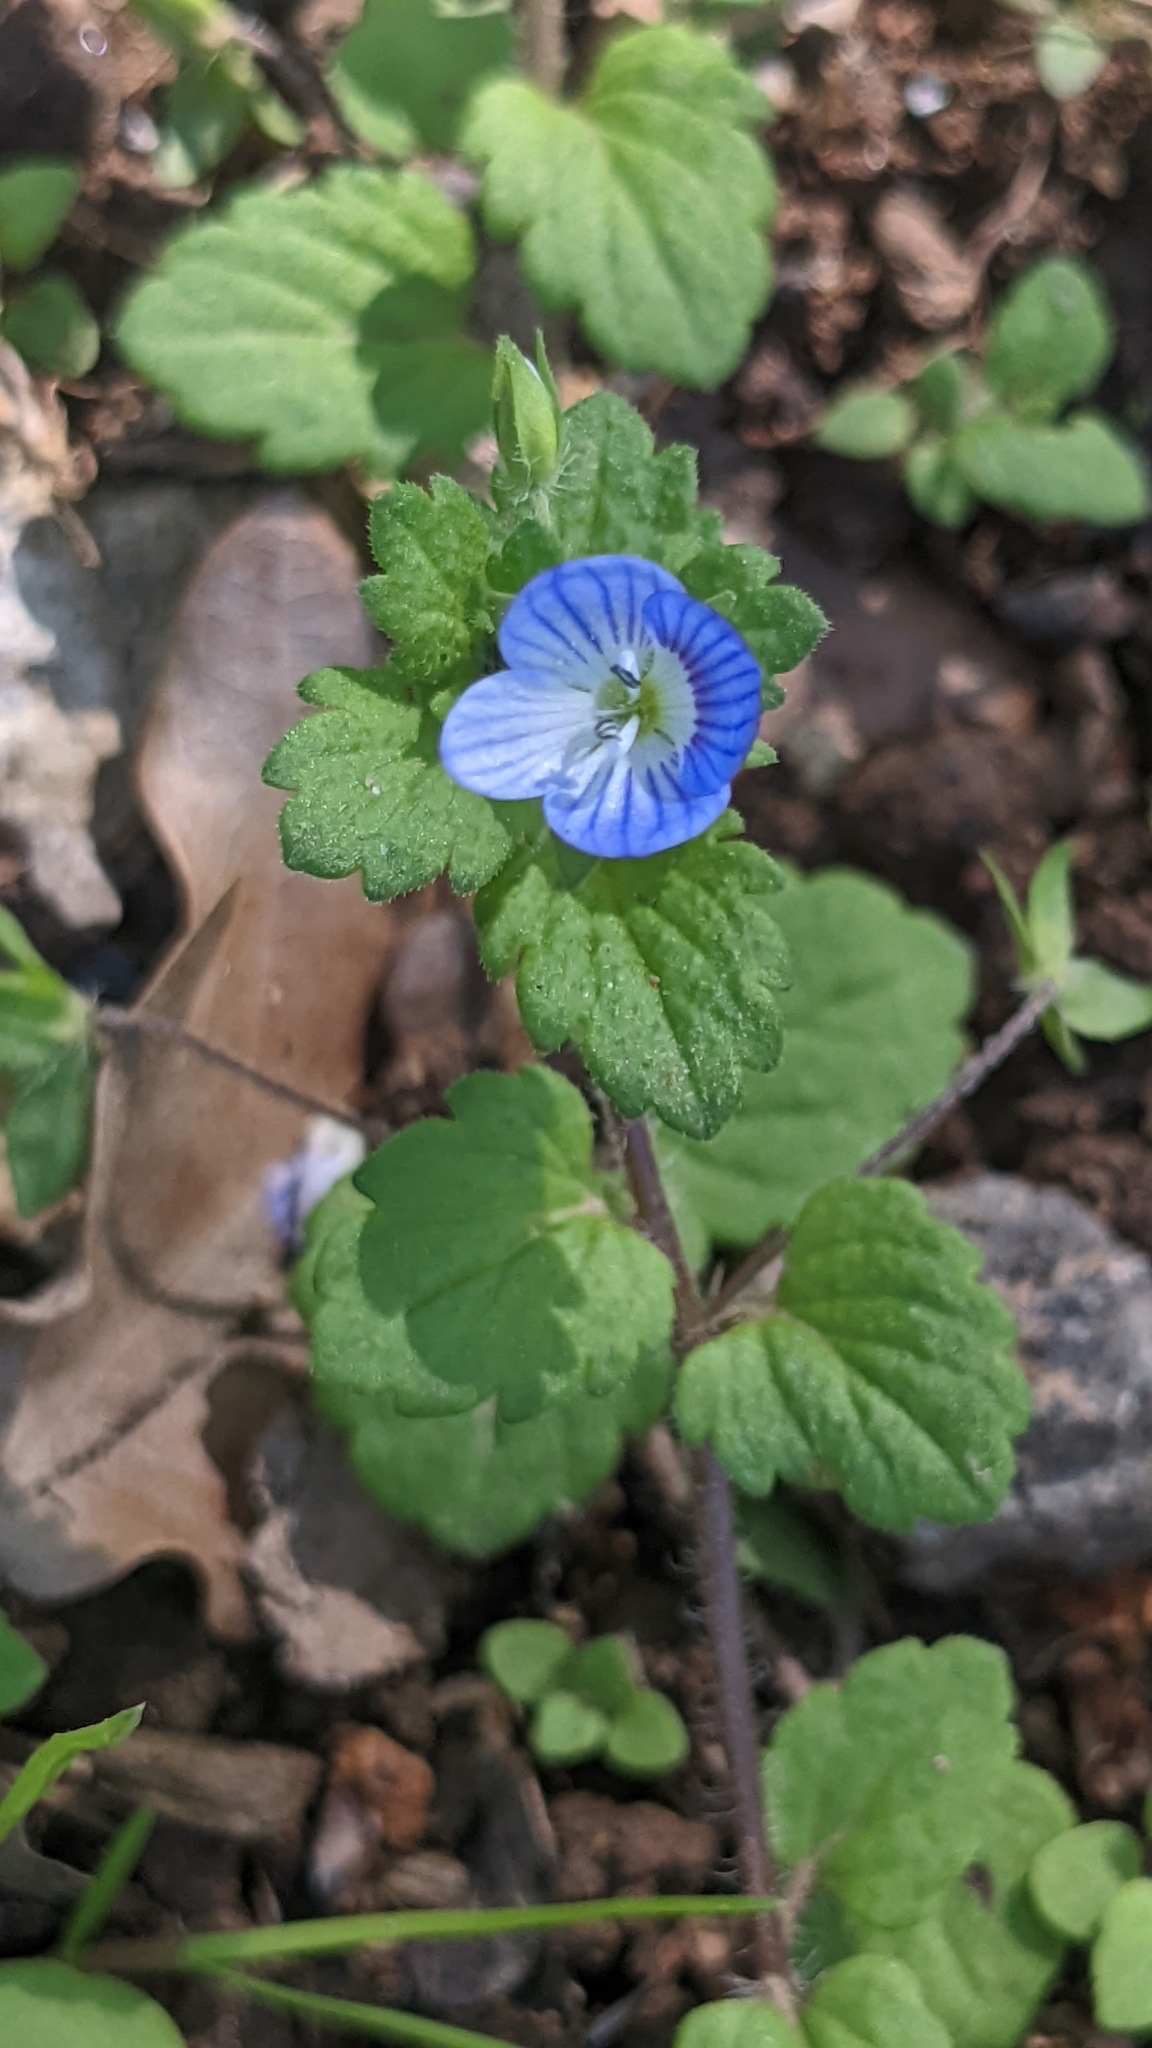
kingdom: Plantae
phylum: Tracheophyta
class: Magnoliopsida
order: Lamiales
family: Plantaginaceae
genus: Veronica
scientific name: Veronica persica
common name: Common field-speedwell
